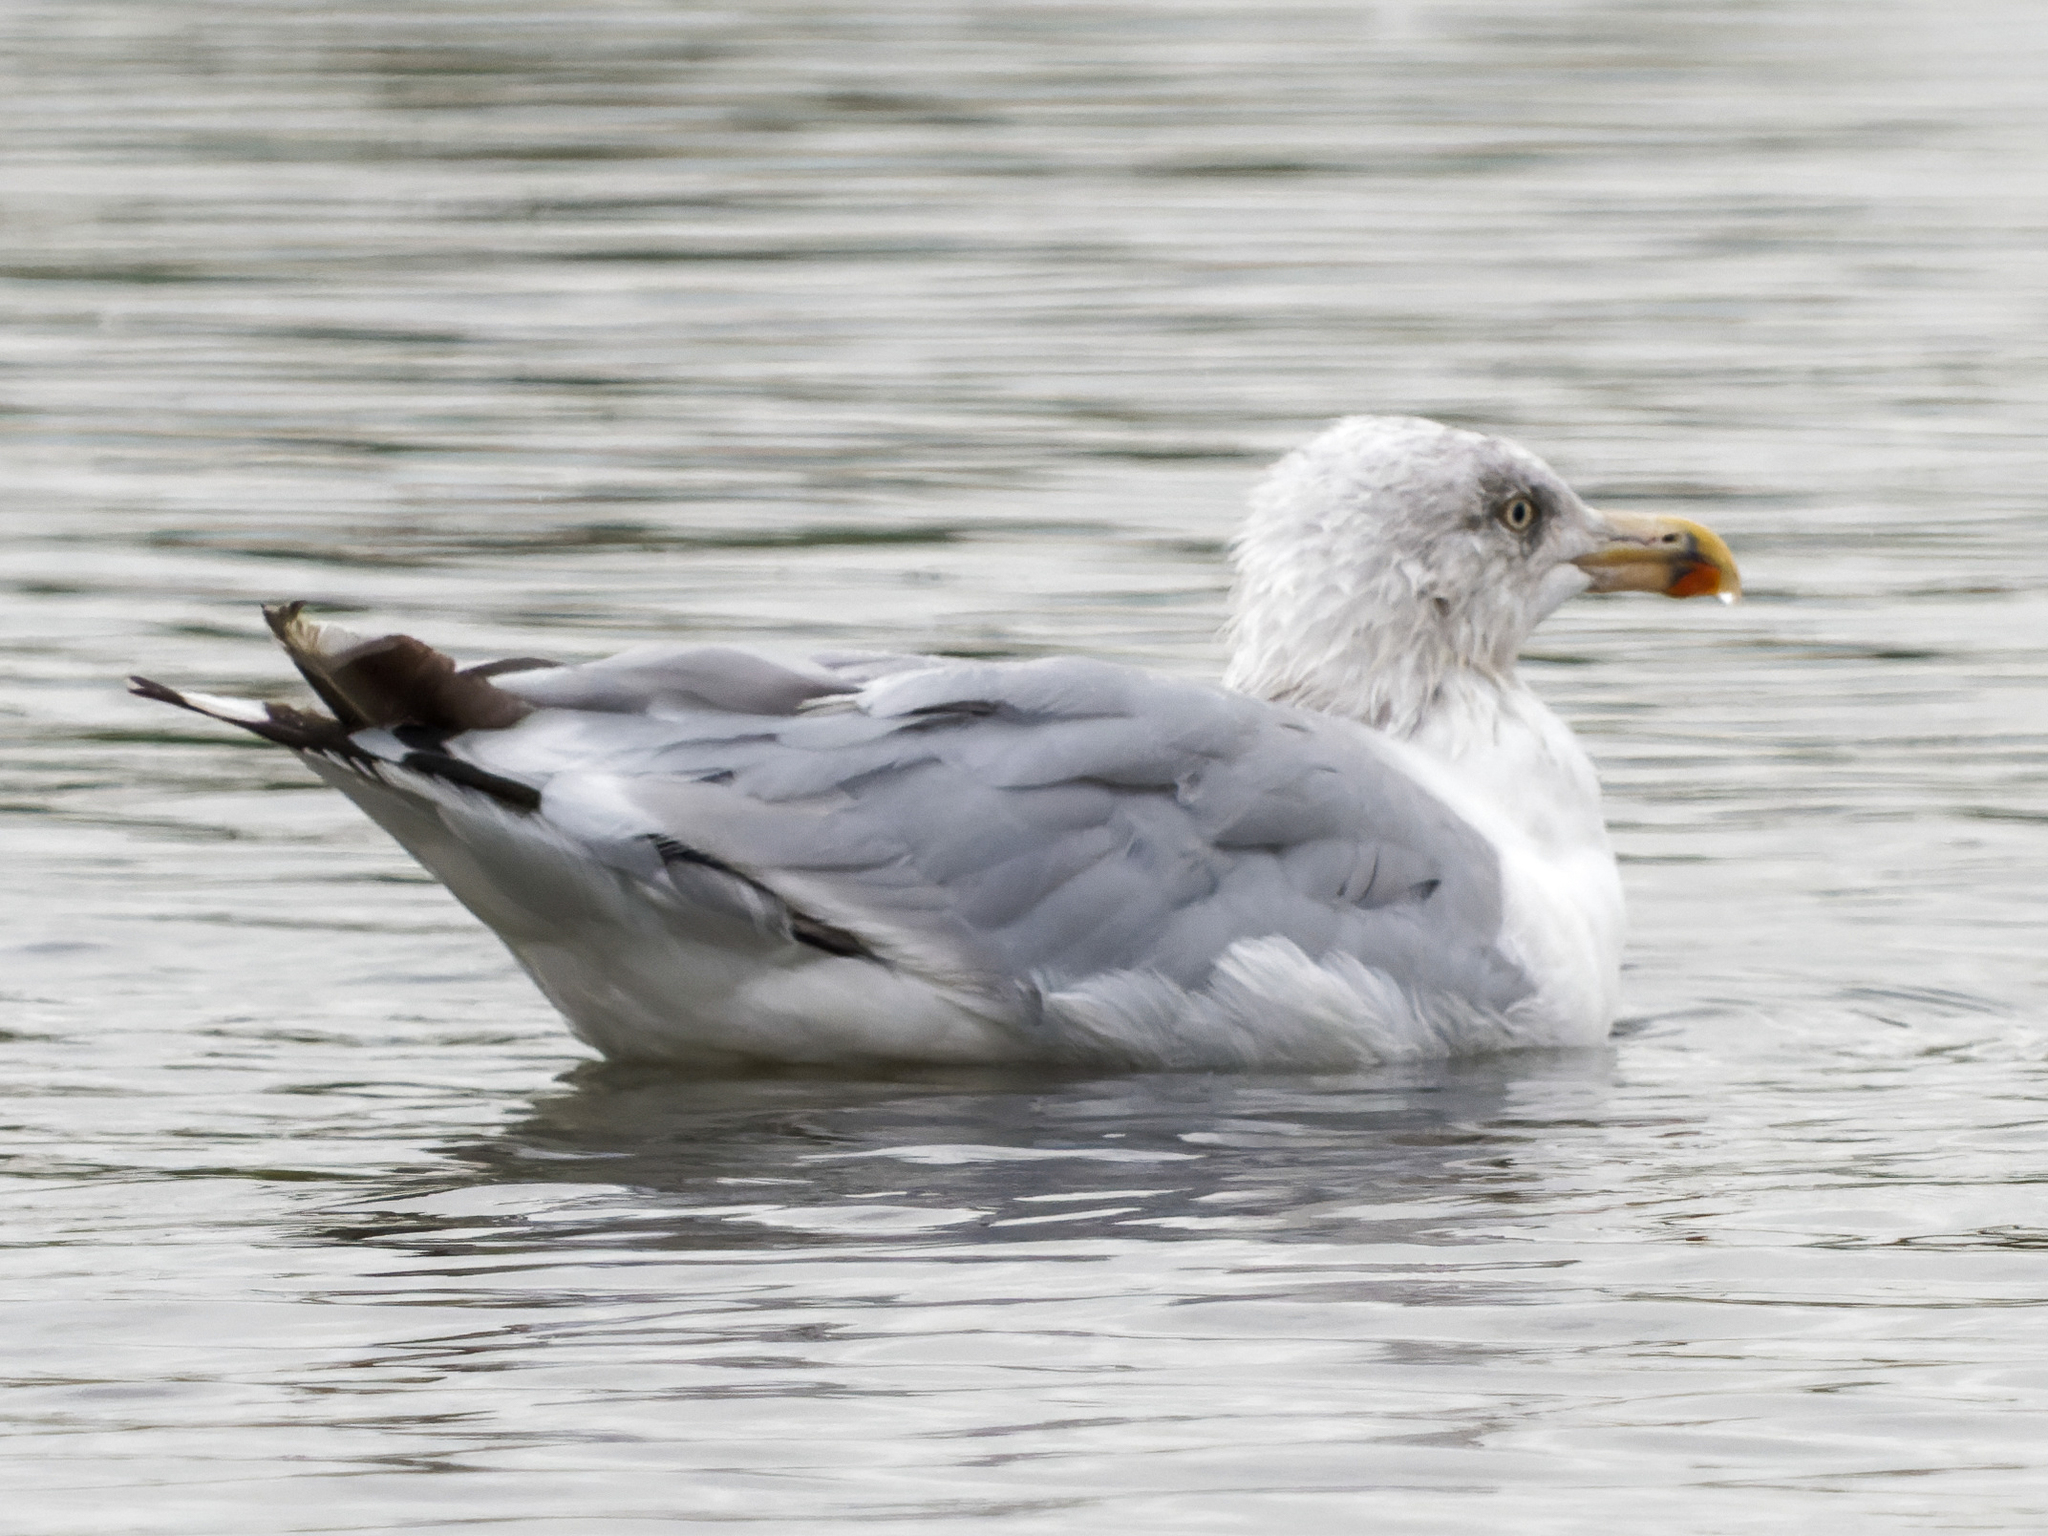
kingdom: Animalia
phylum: Chordata
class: Aves
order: Charadriiformes
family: Laridae
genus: Larus
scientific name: Larus argentatus
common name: Herring gull
